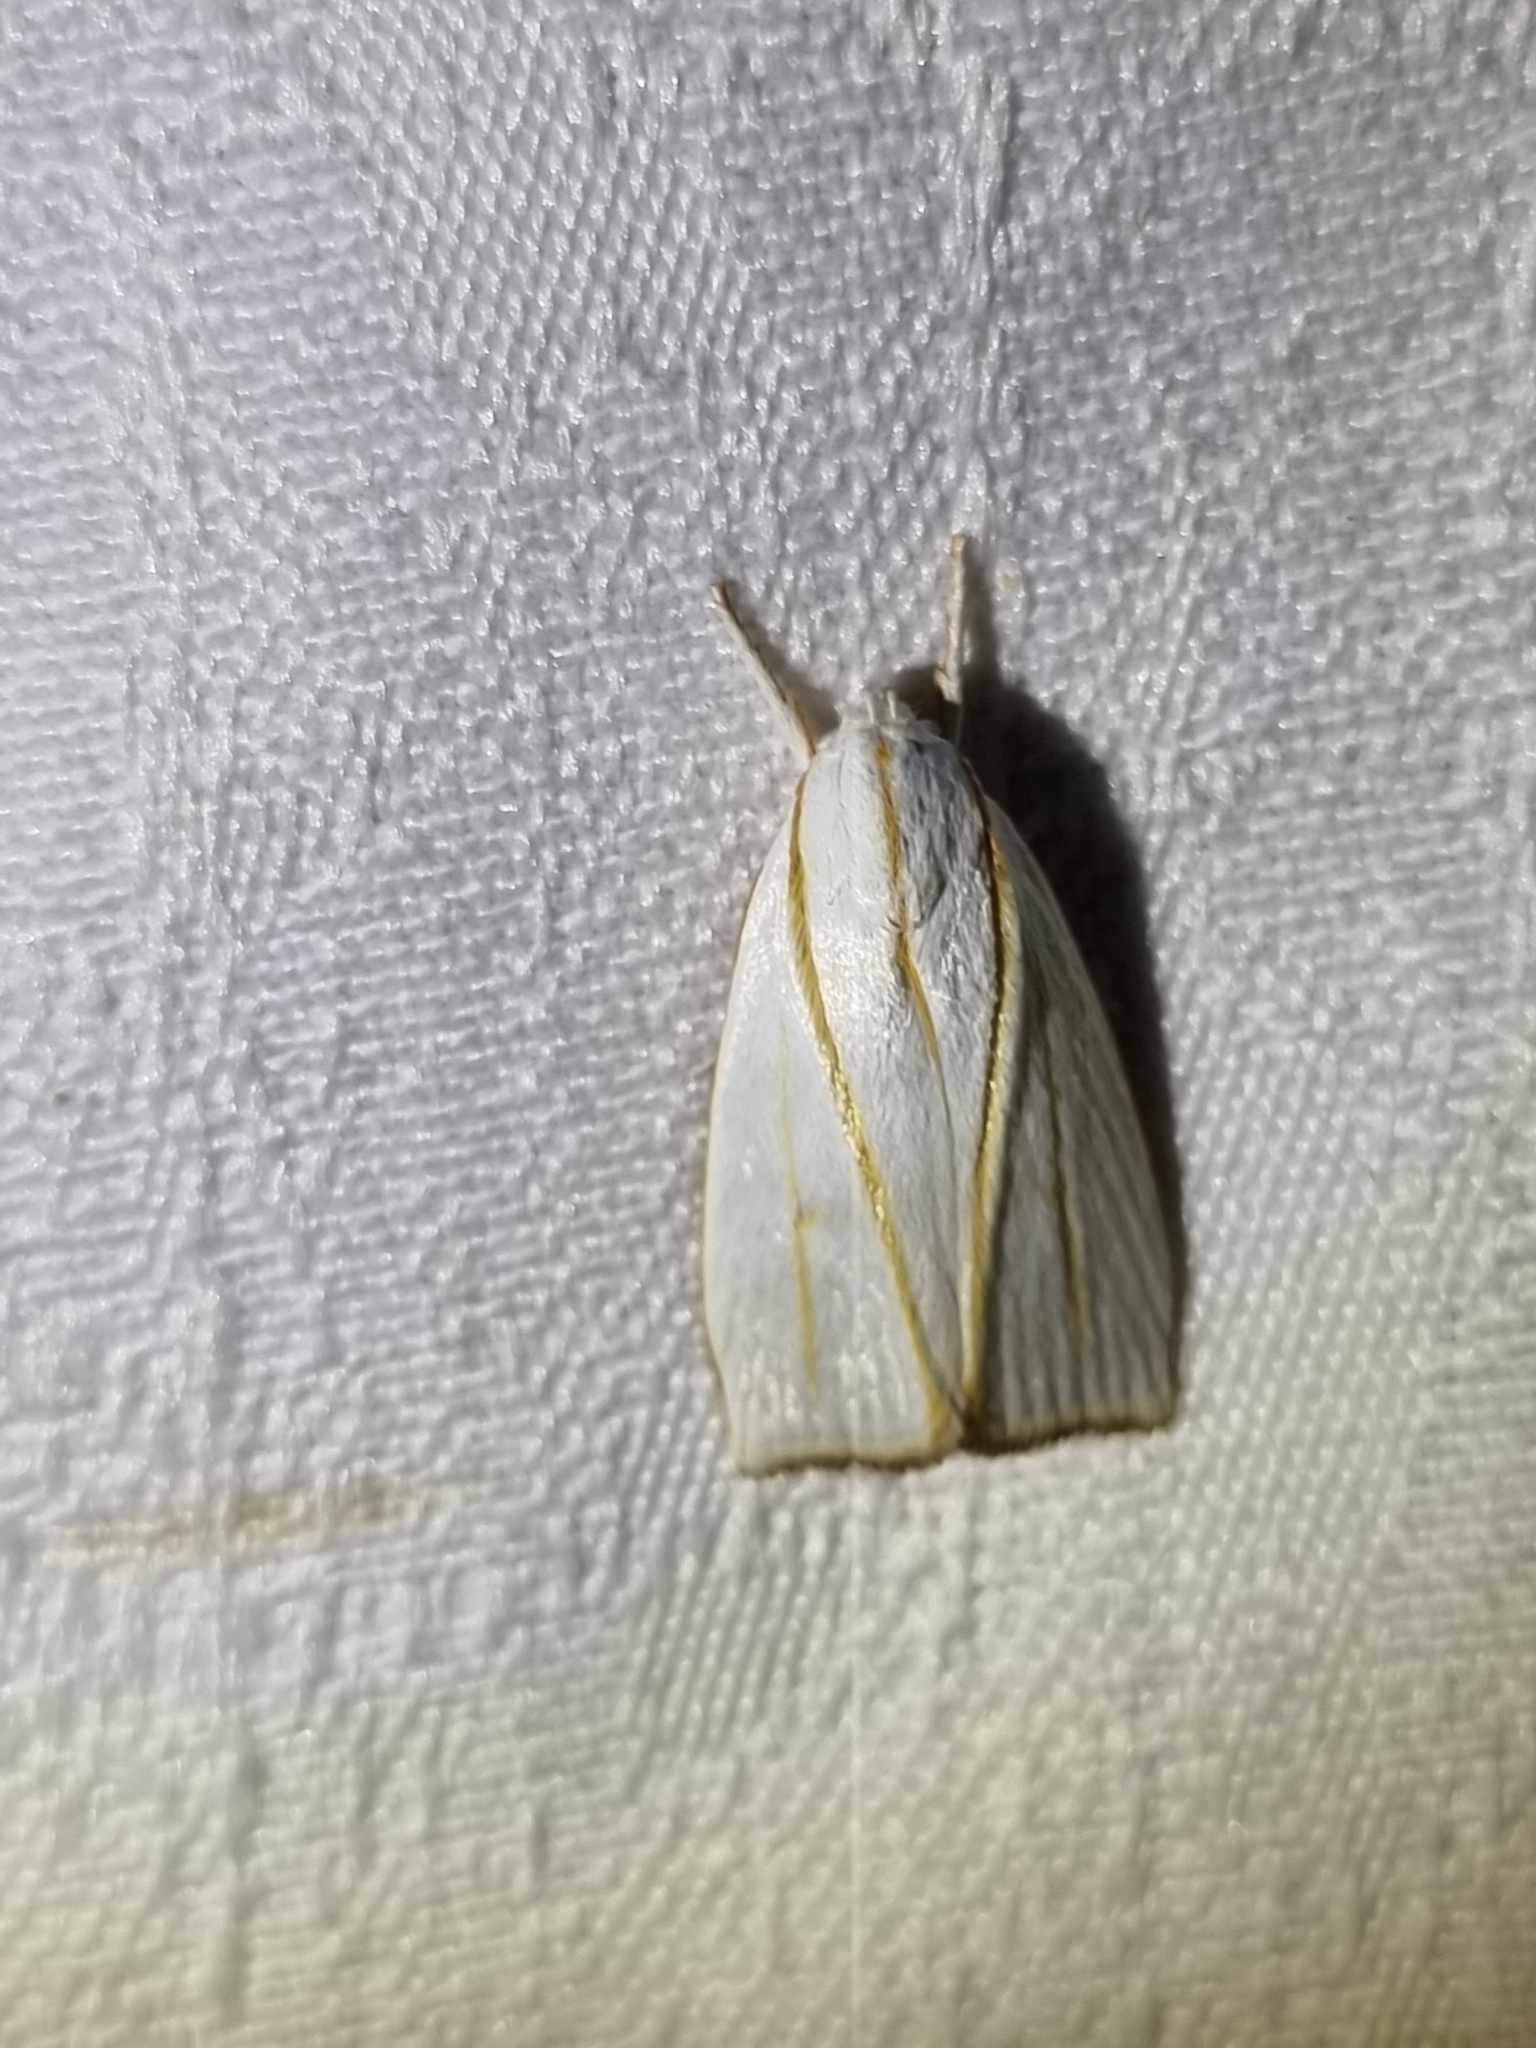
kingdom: Animalia
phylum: Arthropoda
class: Insecta
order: Lepidoptera
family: Xyloryctidae
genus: Cryptophasa
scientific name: Cryptophasa flavolineata
